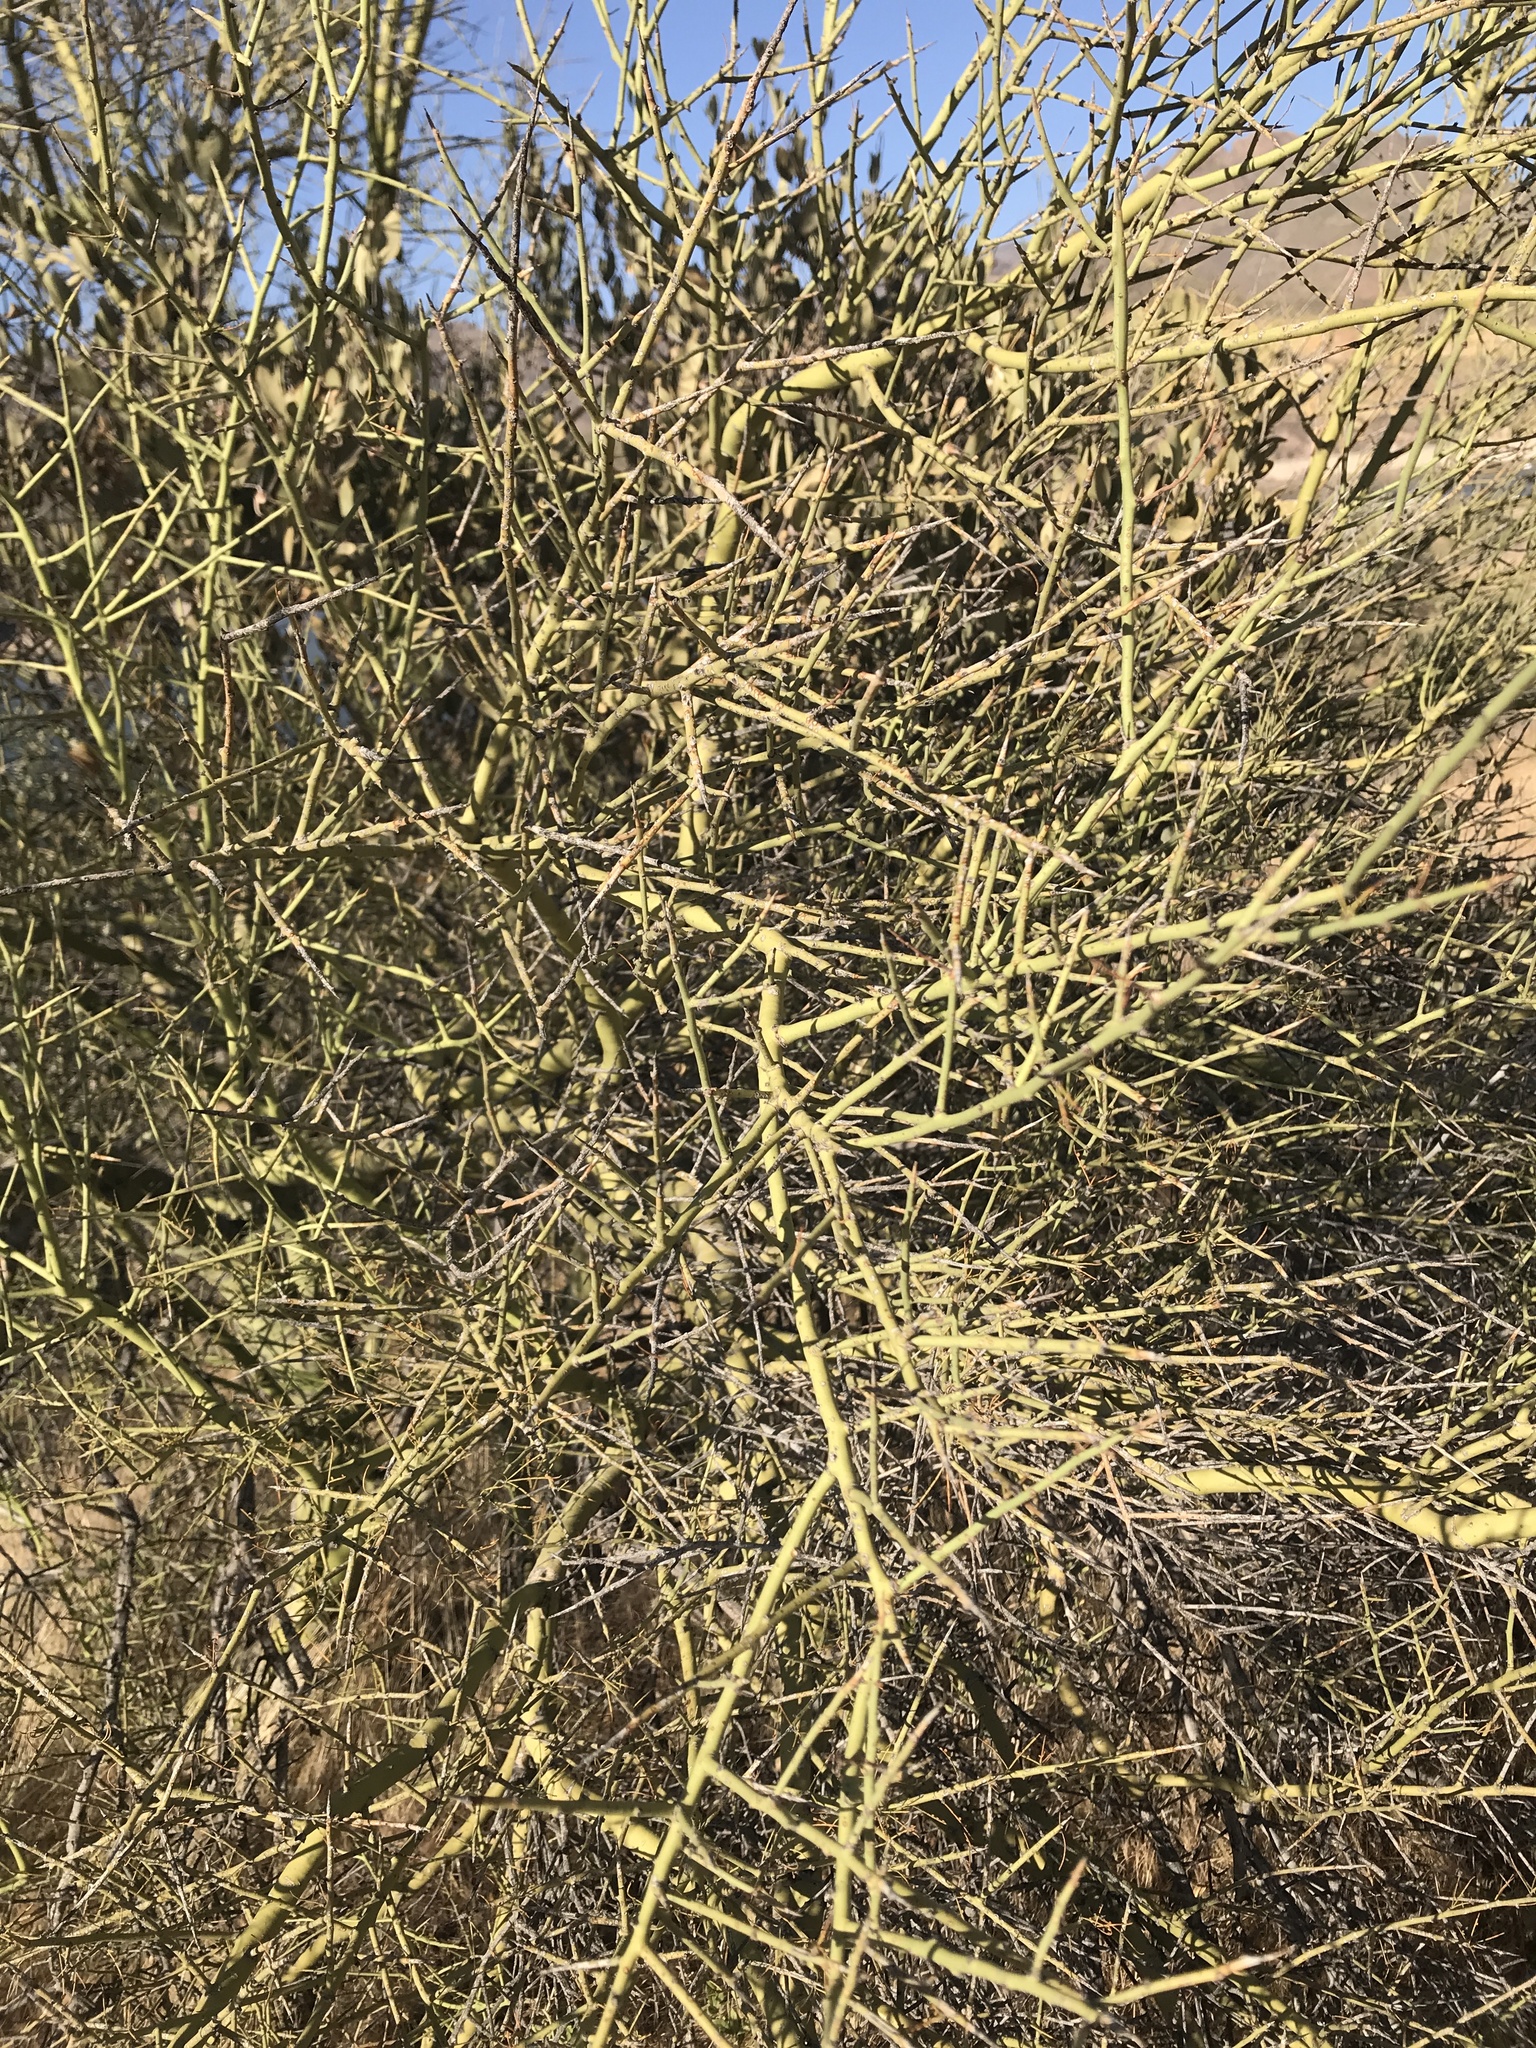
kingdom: Plantae
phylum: Tracheophyta
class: Magnoliopsida
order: Fabales
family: Fabaceae
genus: Parkinsonia
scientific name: Parkinsonia microphylla
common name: Yellow paloverde
